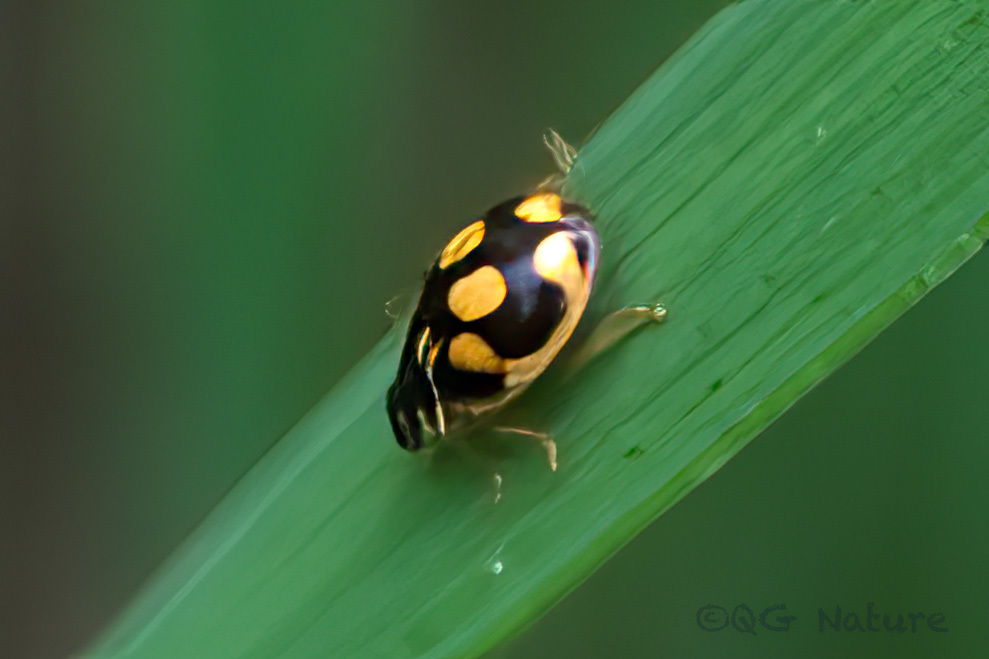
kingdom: Animalia
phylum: Arthropoda
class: Insecta
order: Coleoptera
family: Coccinellidae
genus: Propylea
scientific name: Propylea japonica
